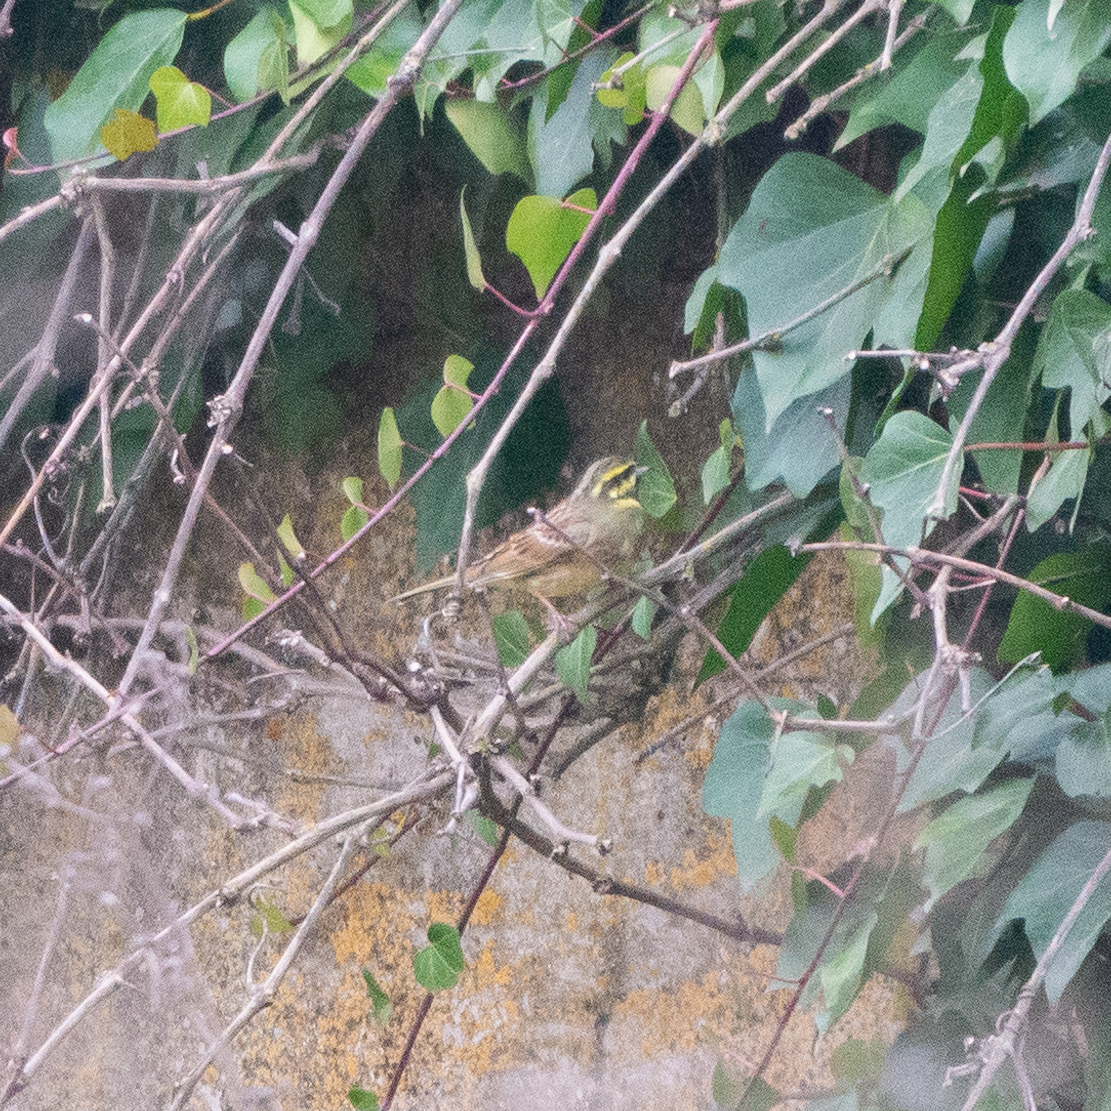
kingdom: Animalia
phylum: Chordata
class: Aves
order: Passeriformes
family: Emberizidae
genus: Emberiza
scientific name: Emberiza cirlus
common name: Cirl bunting
